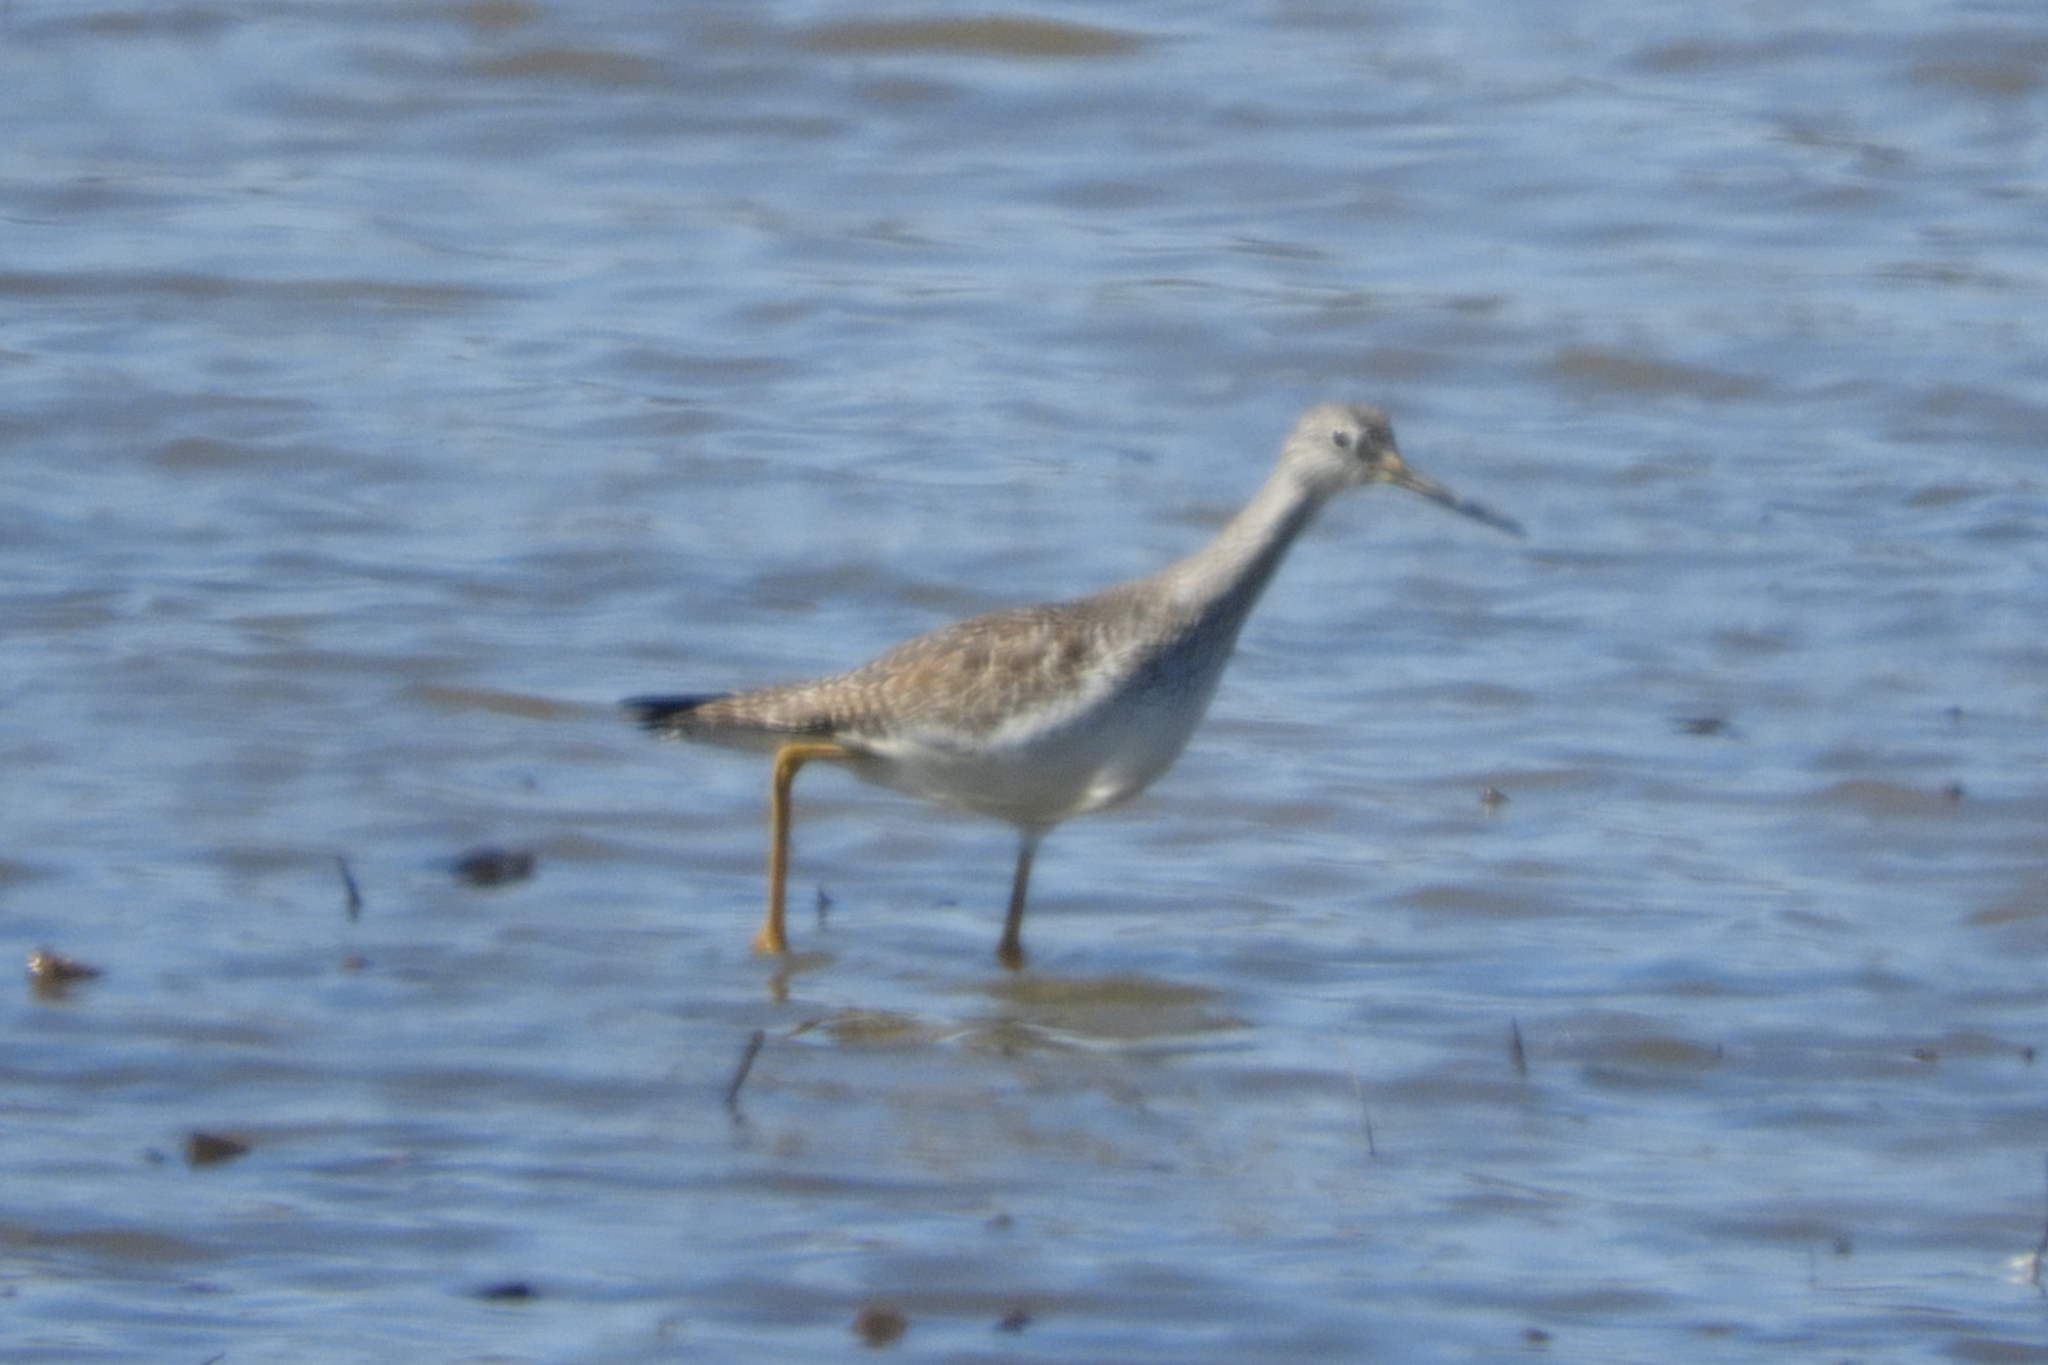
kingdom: Animalia
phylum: Chordata
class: Aves
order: Charadriiformes
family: Scolopacidae
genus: Tringa
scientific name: Tringa melanoleuca
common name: Greater yellowlegs
